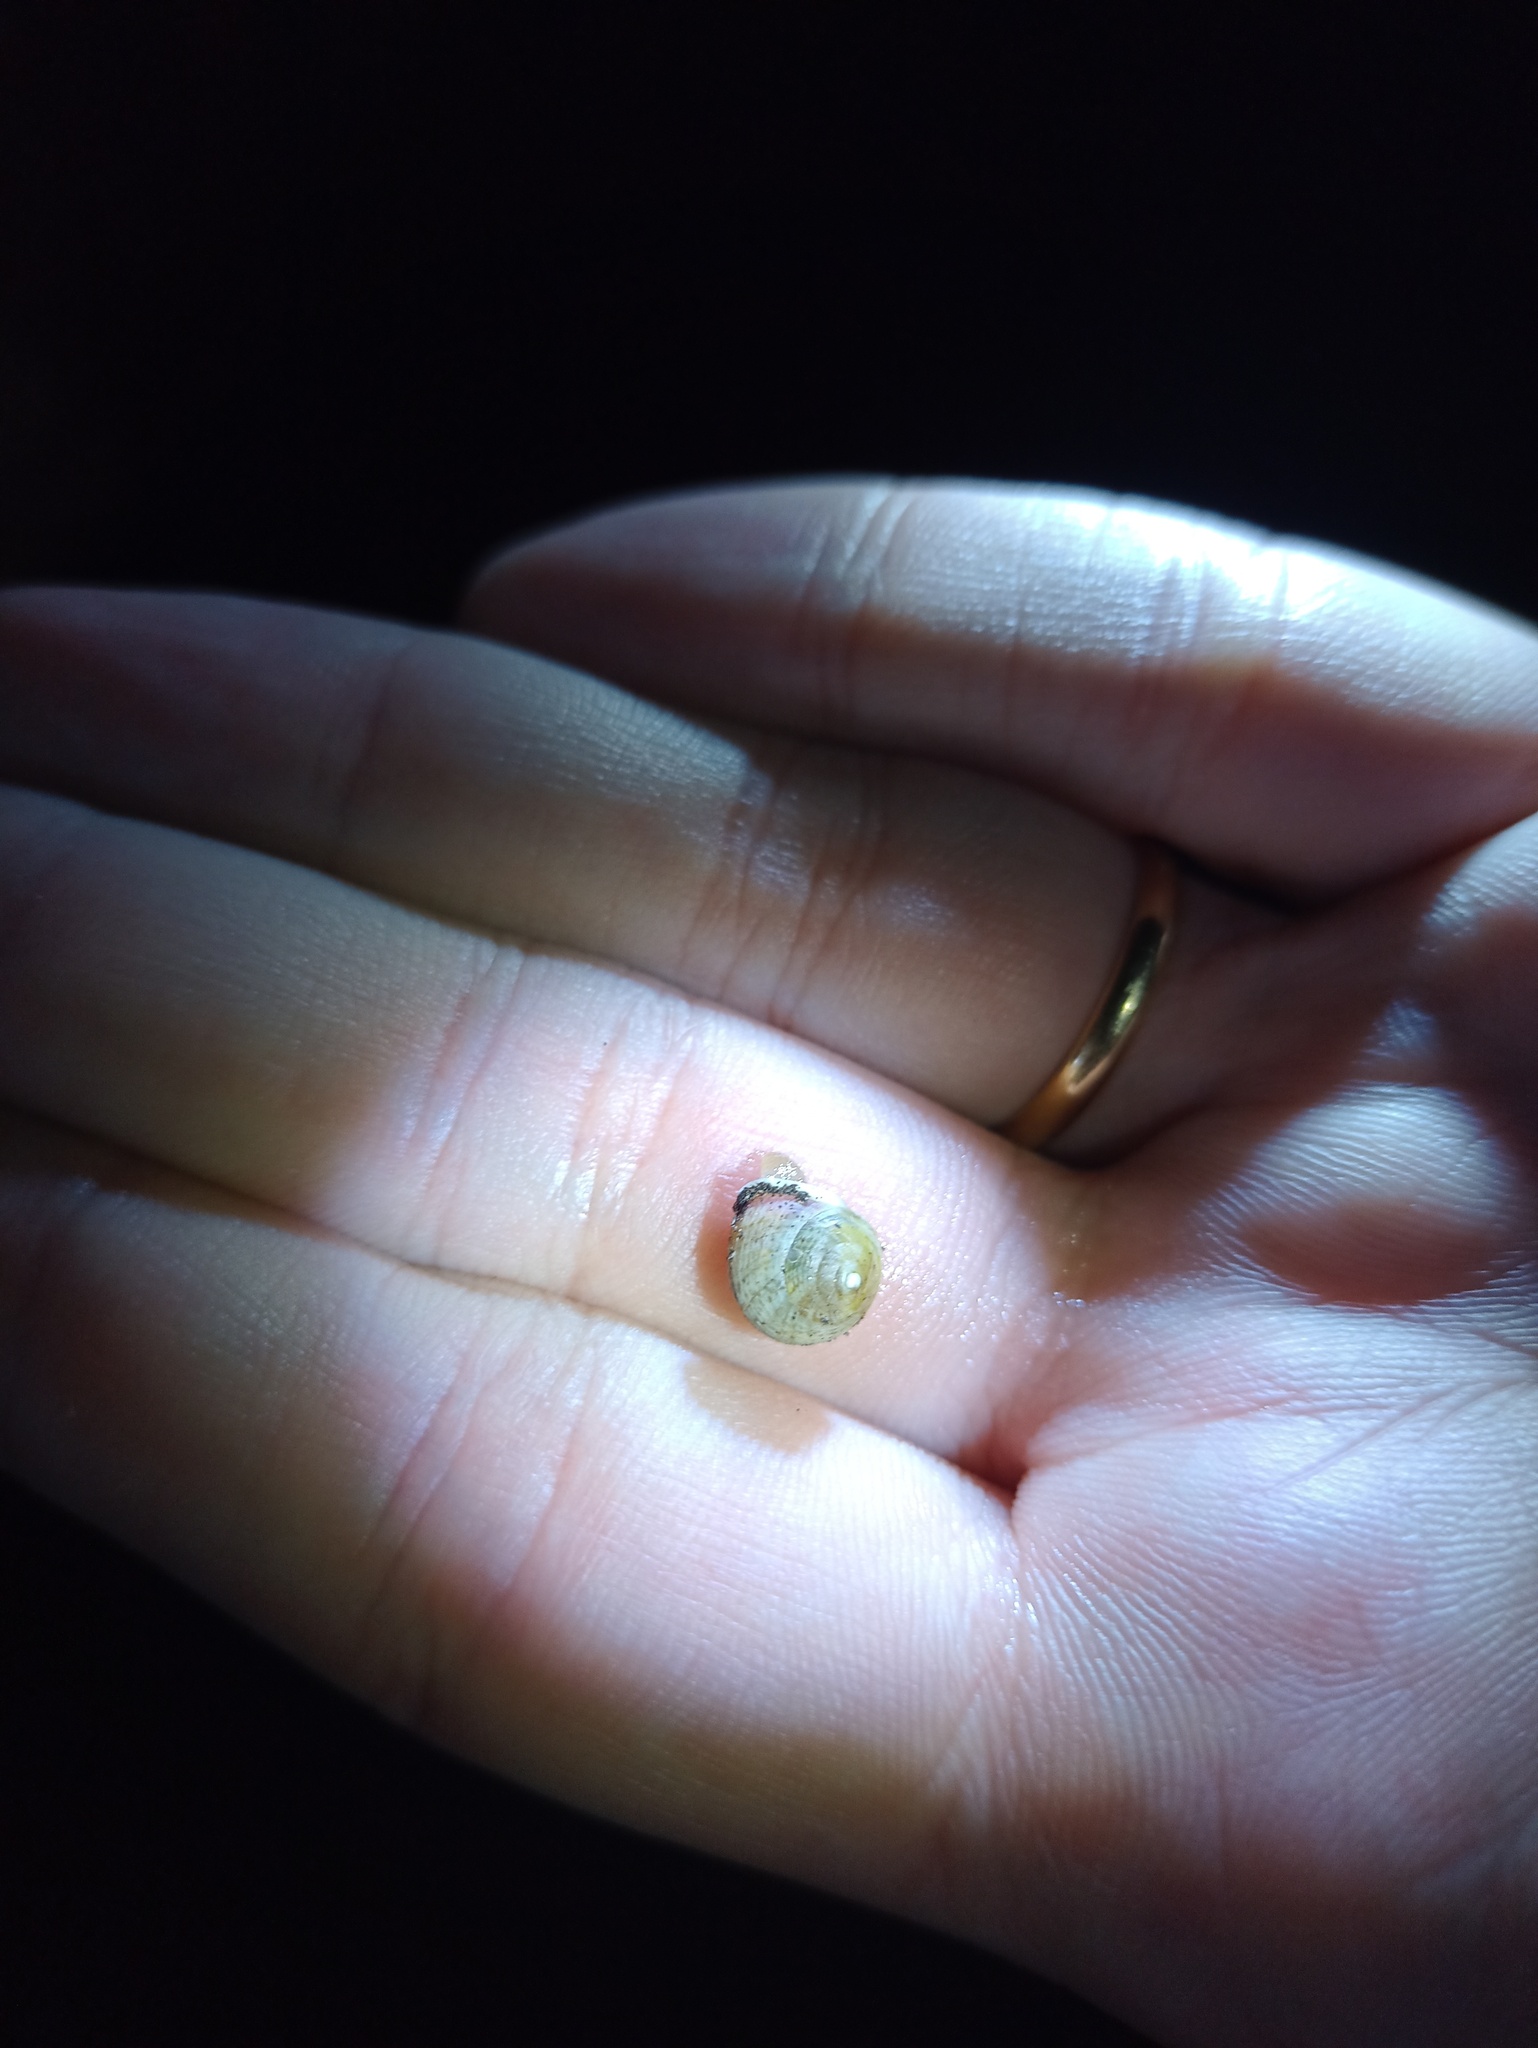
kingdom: Animalia
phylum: Mollusca
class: Gastropoda
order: Cycloneritida
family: Helicinidae
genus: Helicina
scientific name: Helicina boettgeri
